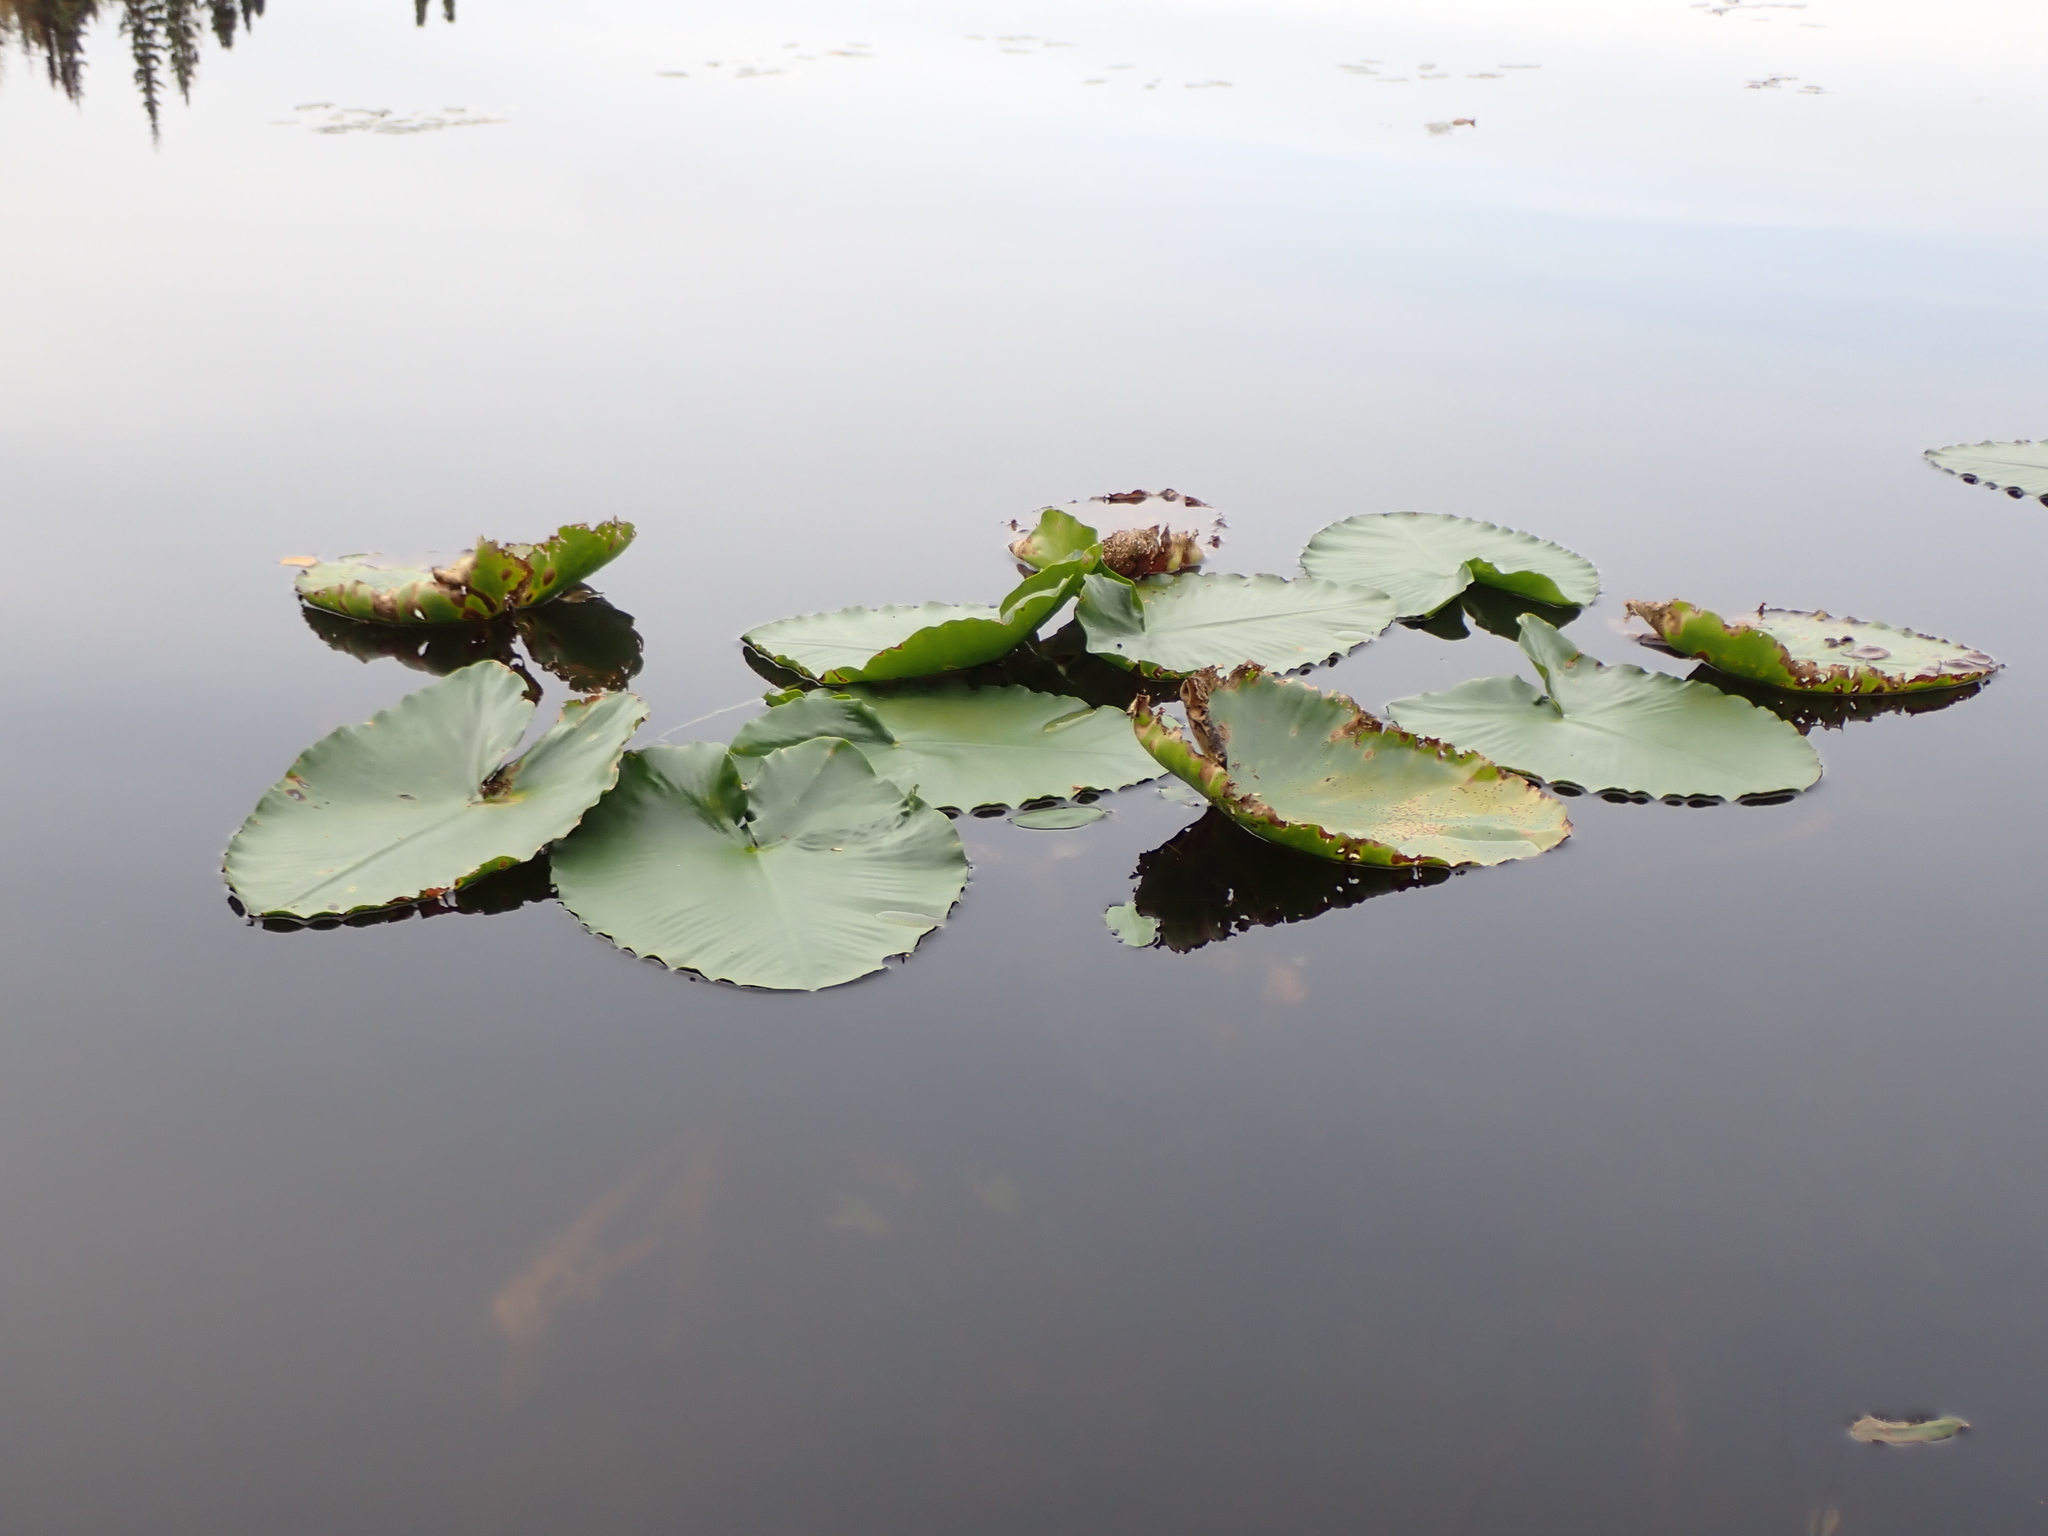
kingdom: Plantae
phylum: Tracheophyta
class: Magnoliopsida
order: Nymphaeales
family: Nymphaeaceae
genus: Nuphar
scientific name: Nuphar polysepala
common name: Rocky mountain cow-lily
